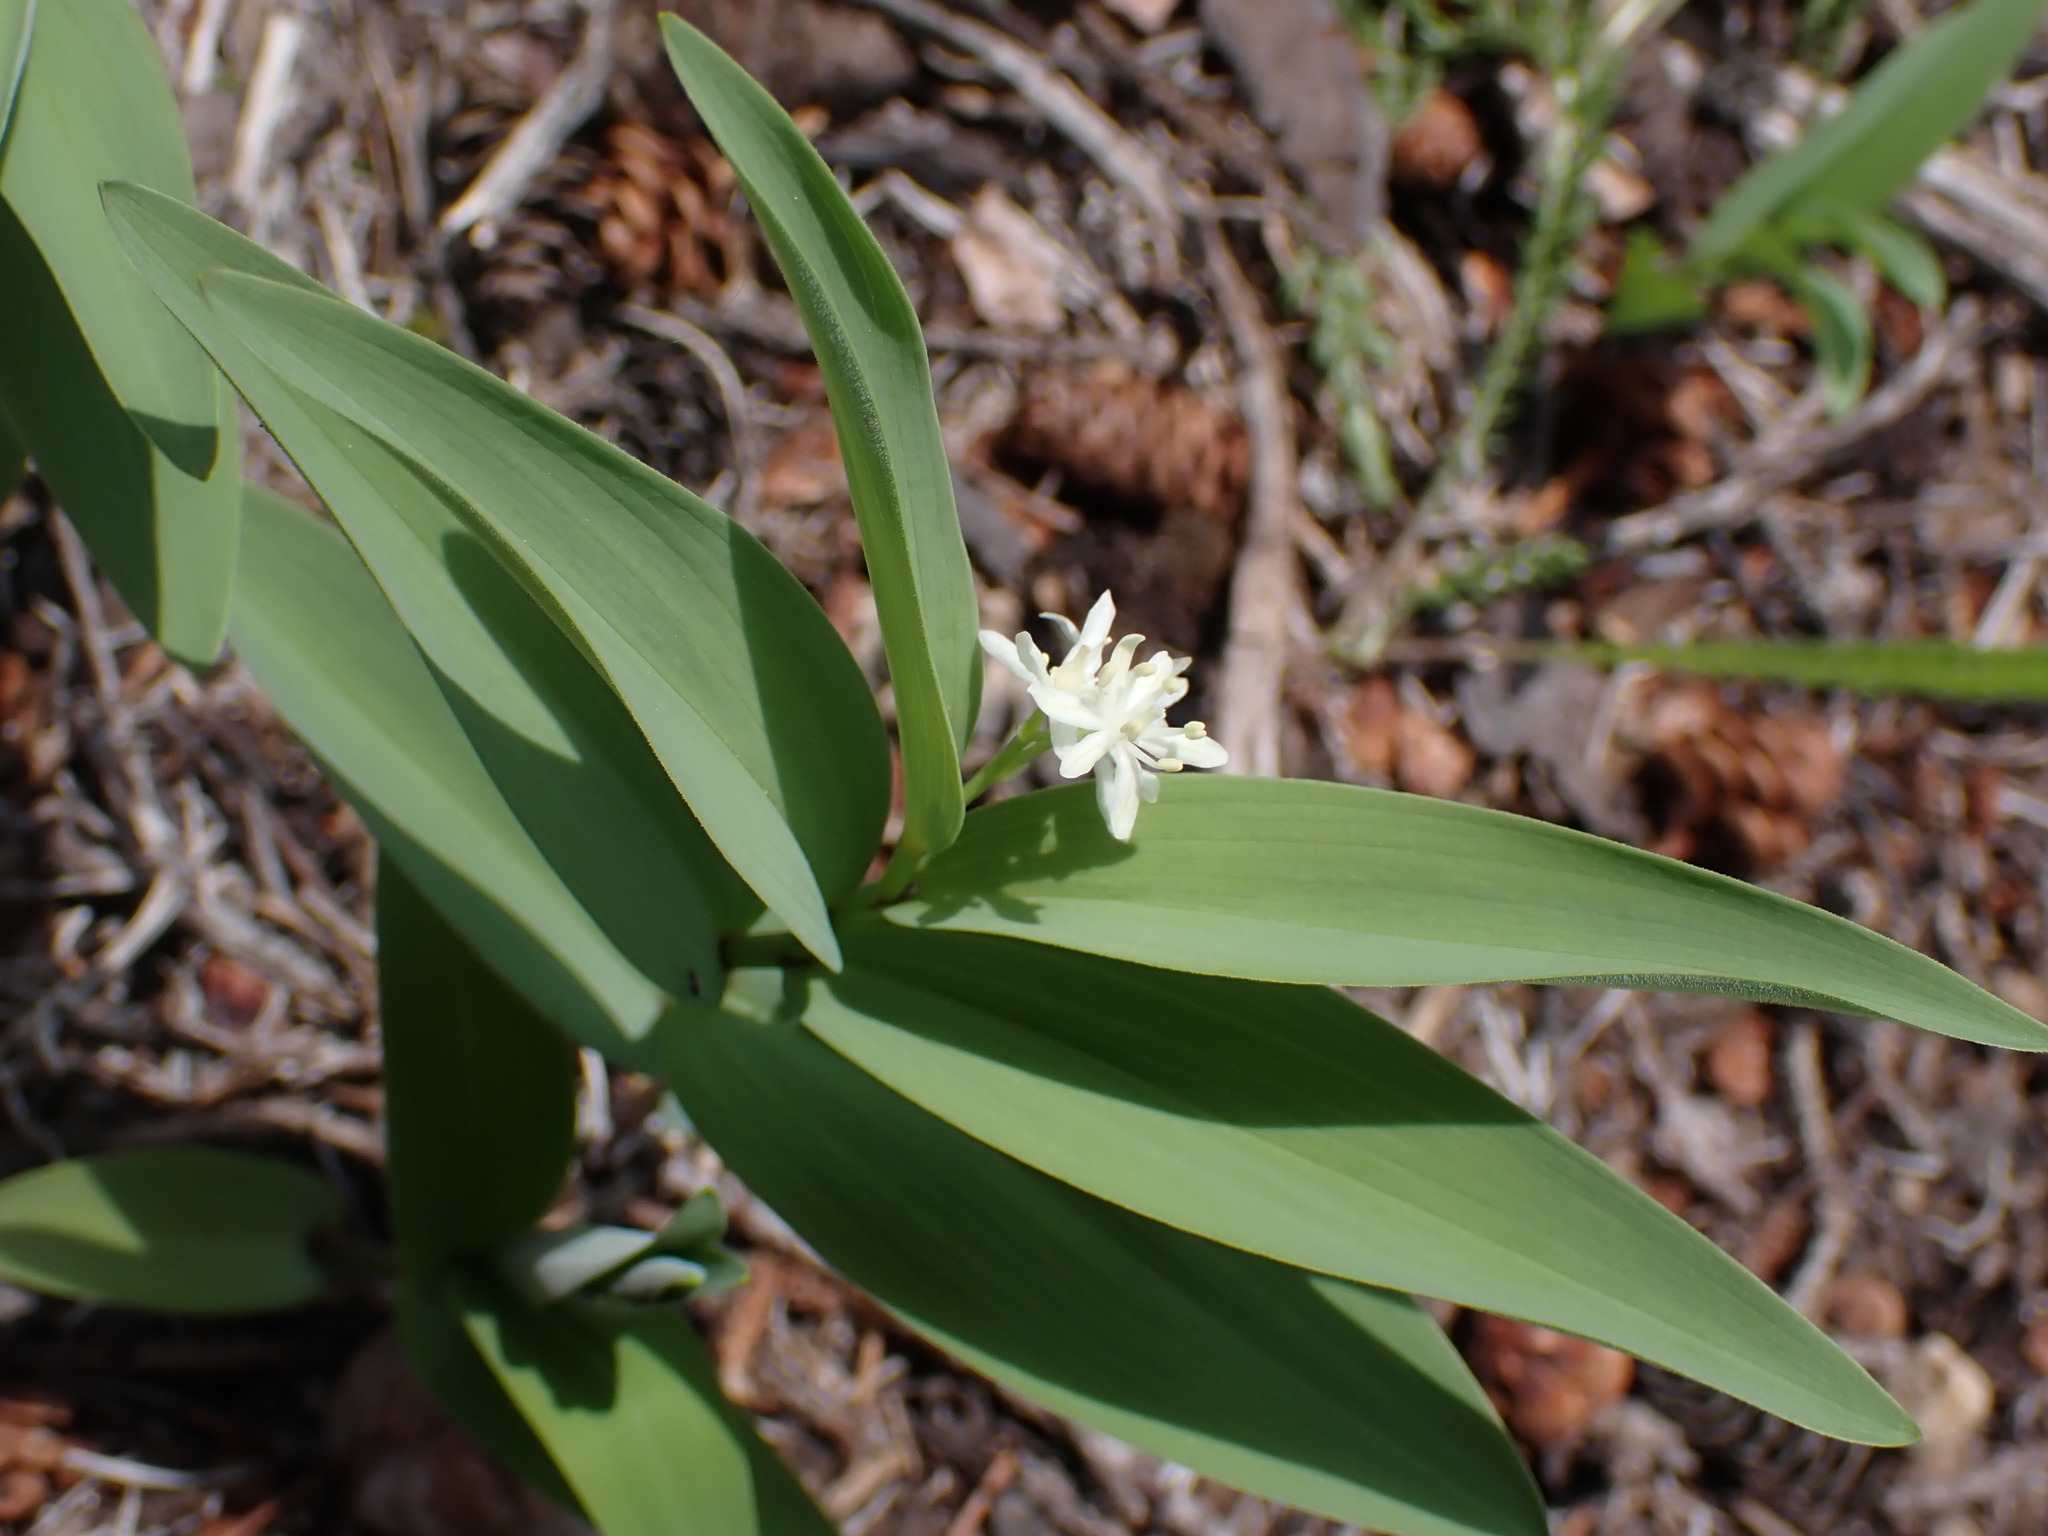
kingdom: Plantae
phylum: Tracheophyta
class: Liliopsida
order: Asparagales
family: Asparagaceae
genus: Maianthemum
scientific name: Maianthemum stellatum
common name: Little false solomon's seal
